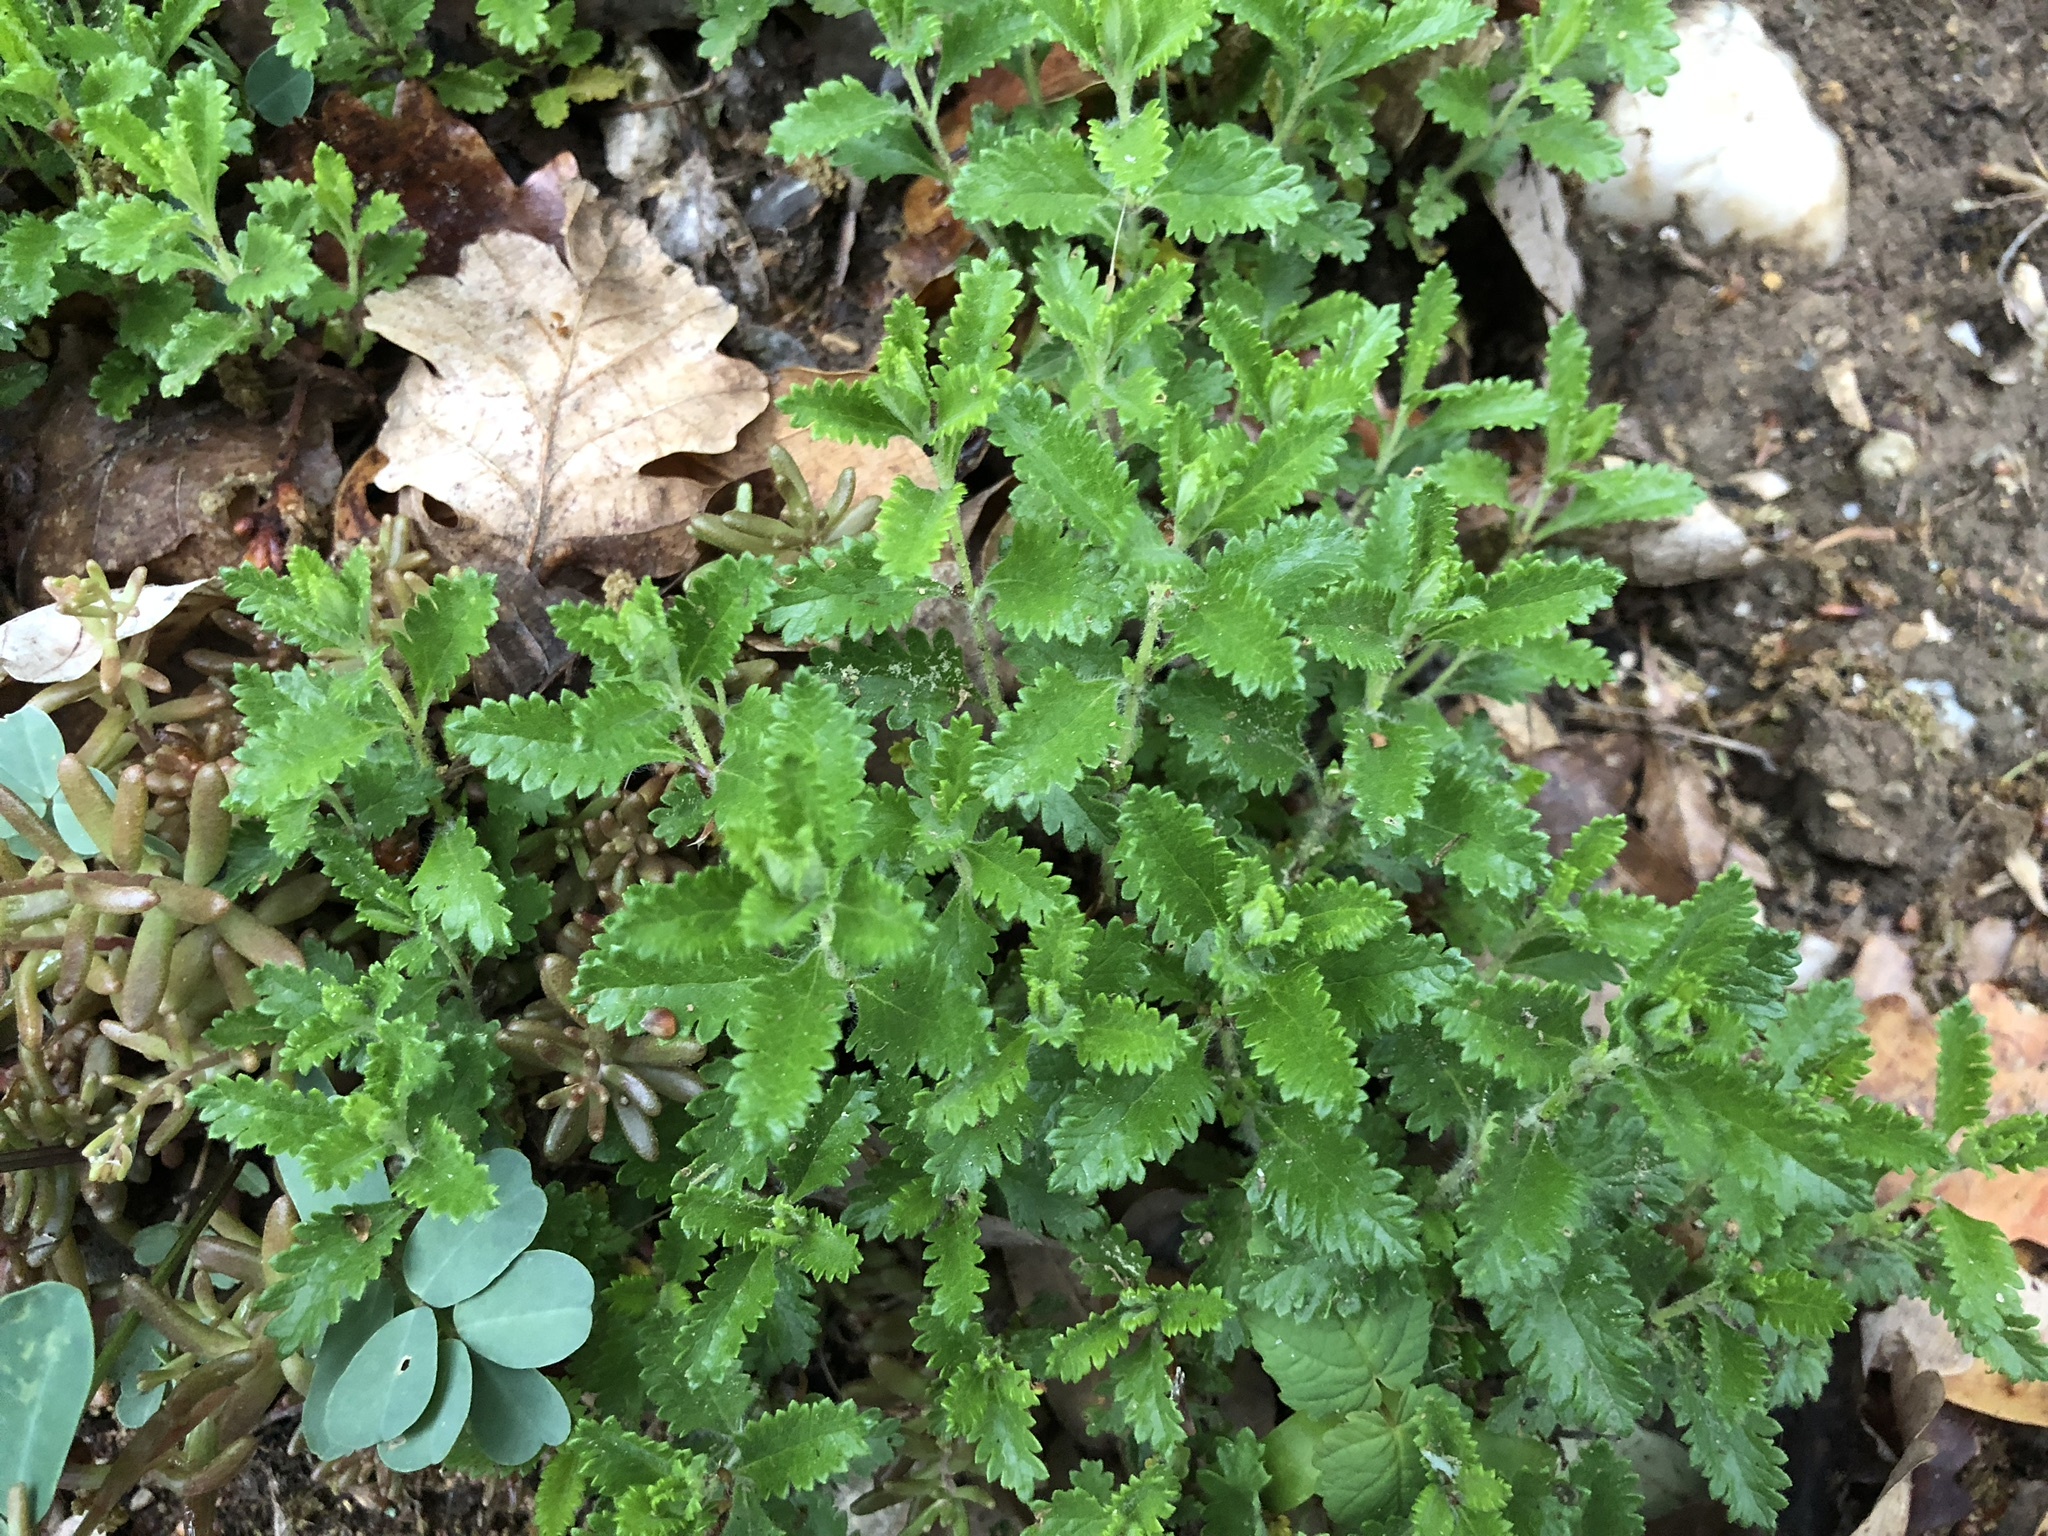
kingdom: Plantae
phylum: Tracheophyta
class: Magnoliopsida
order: Lamiales
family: Lamiaceae
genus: Teucrium
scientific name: Teucrium chamaedrys
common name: Wall germander
